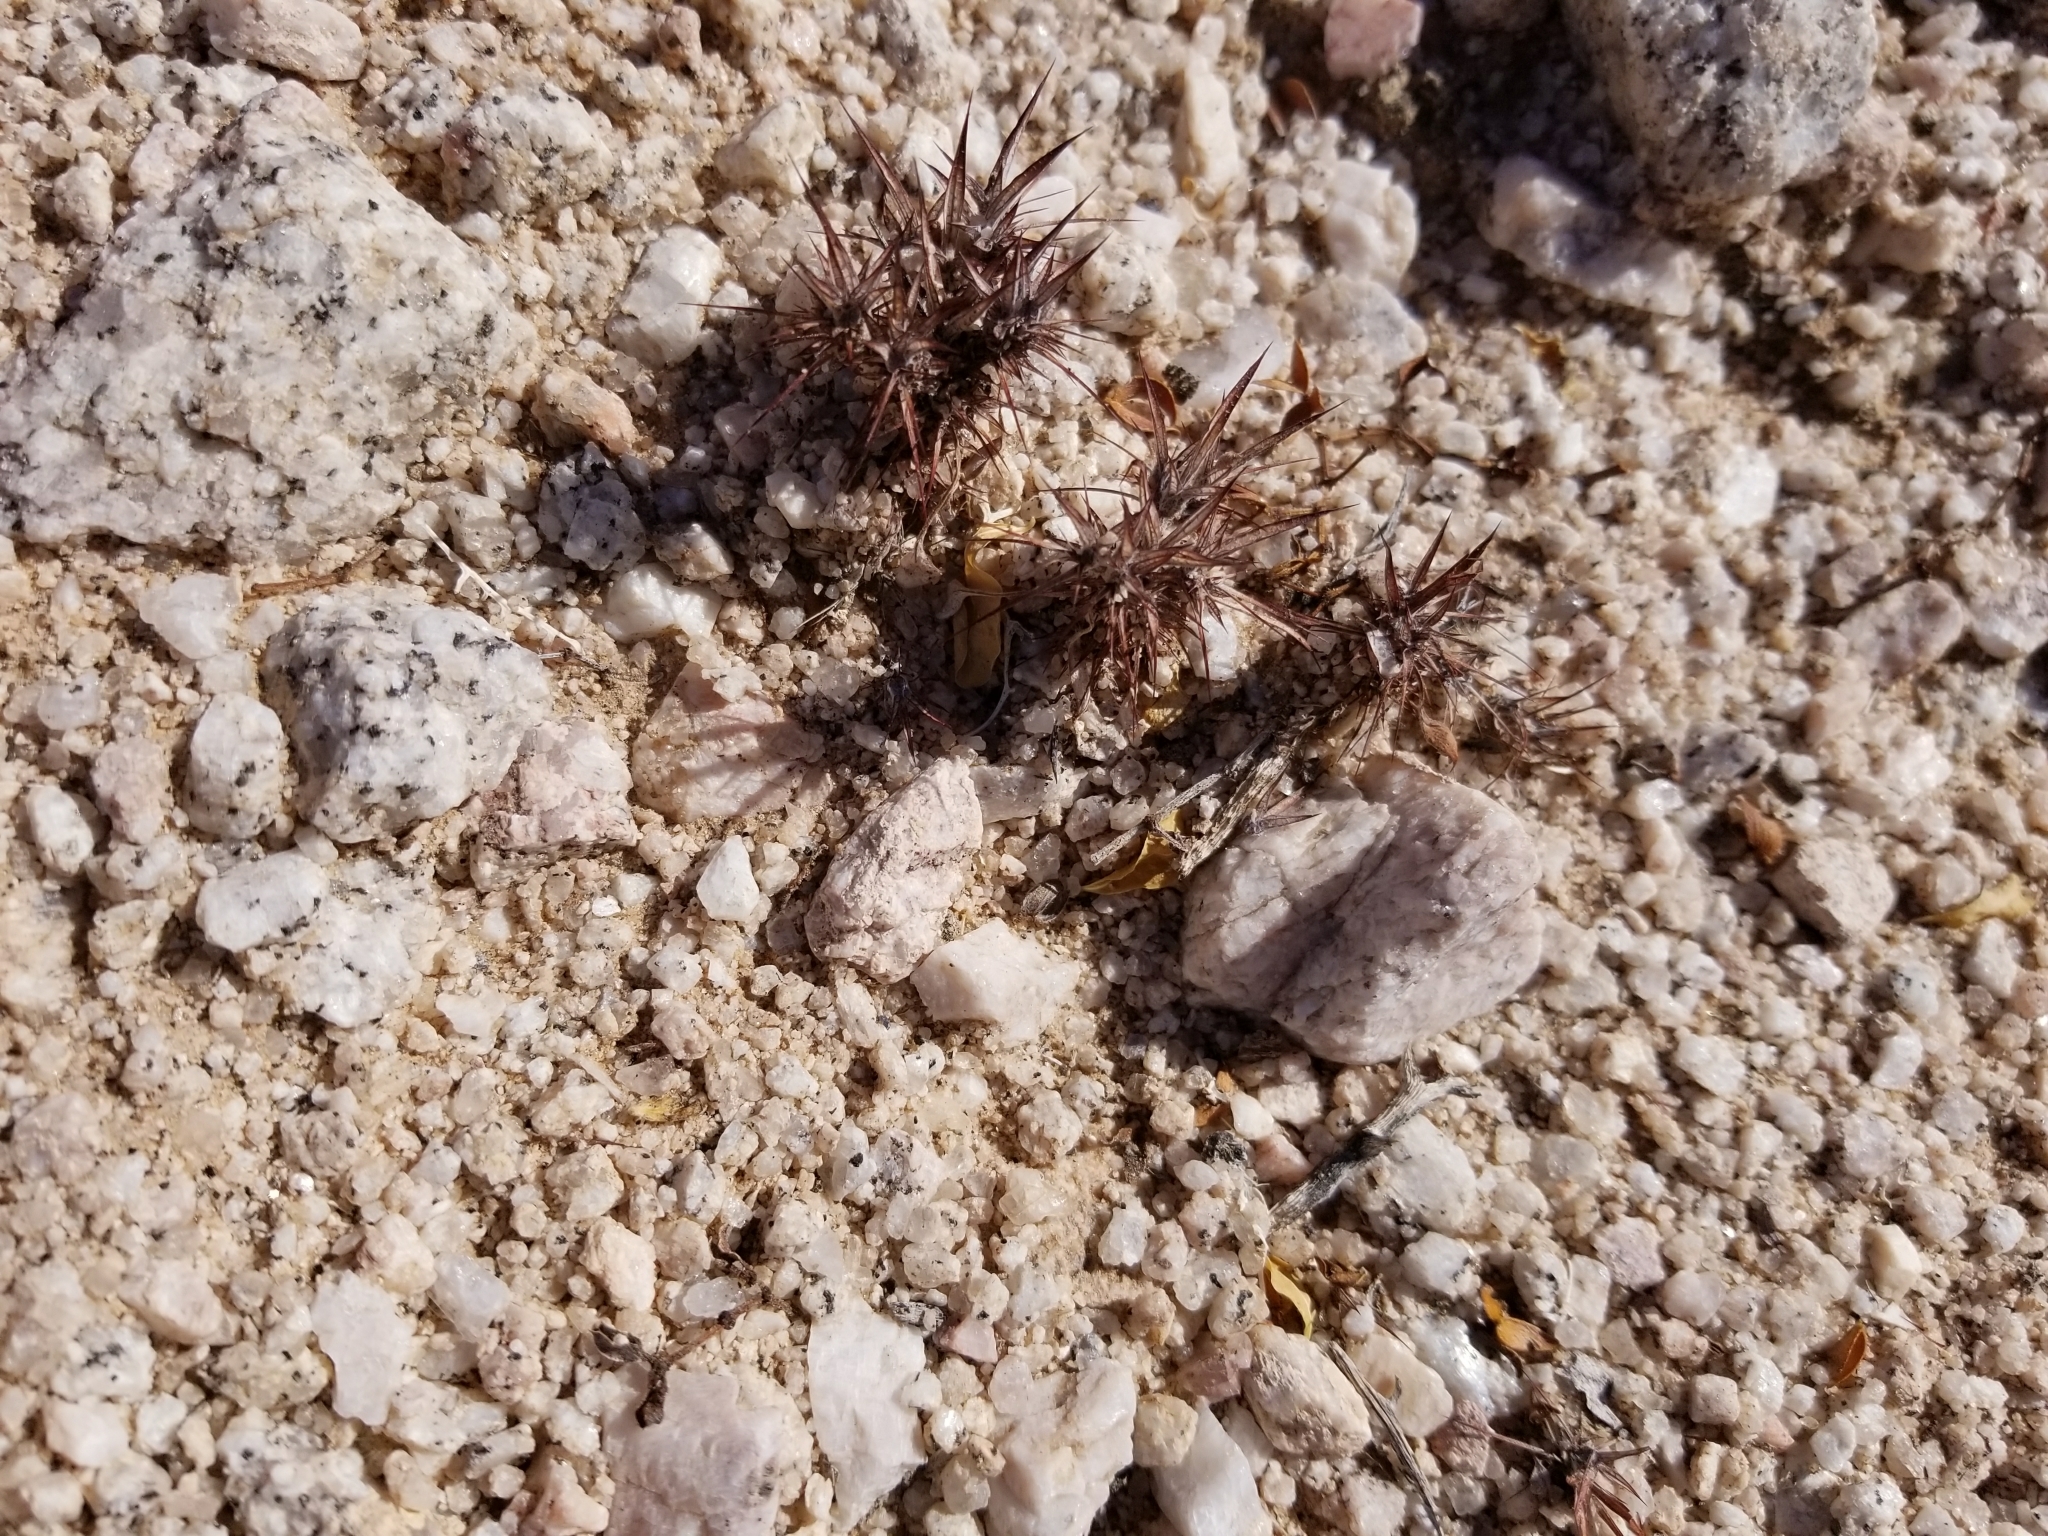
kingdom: Plantae
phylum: Tracheophyta
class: Magnoliopsida
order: Caryophyllales
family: Polygonaceae
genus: Chorizanthe
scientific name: Chorizanthe rigida
